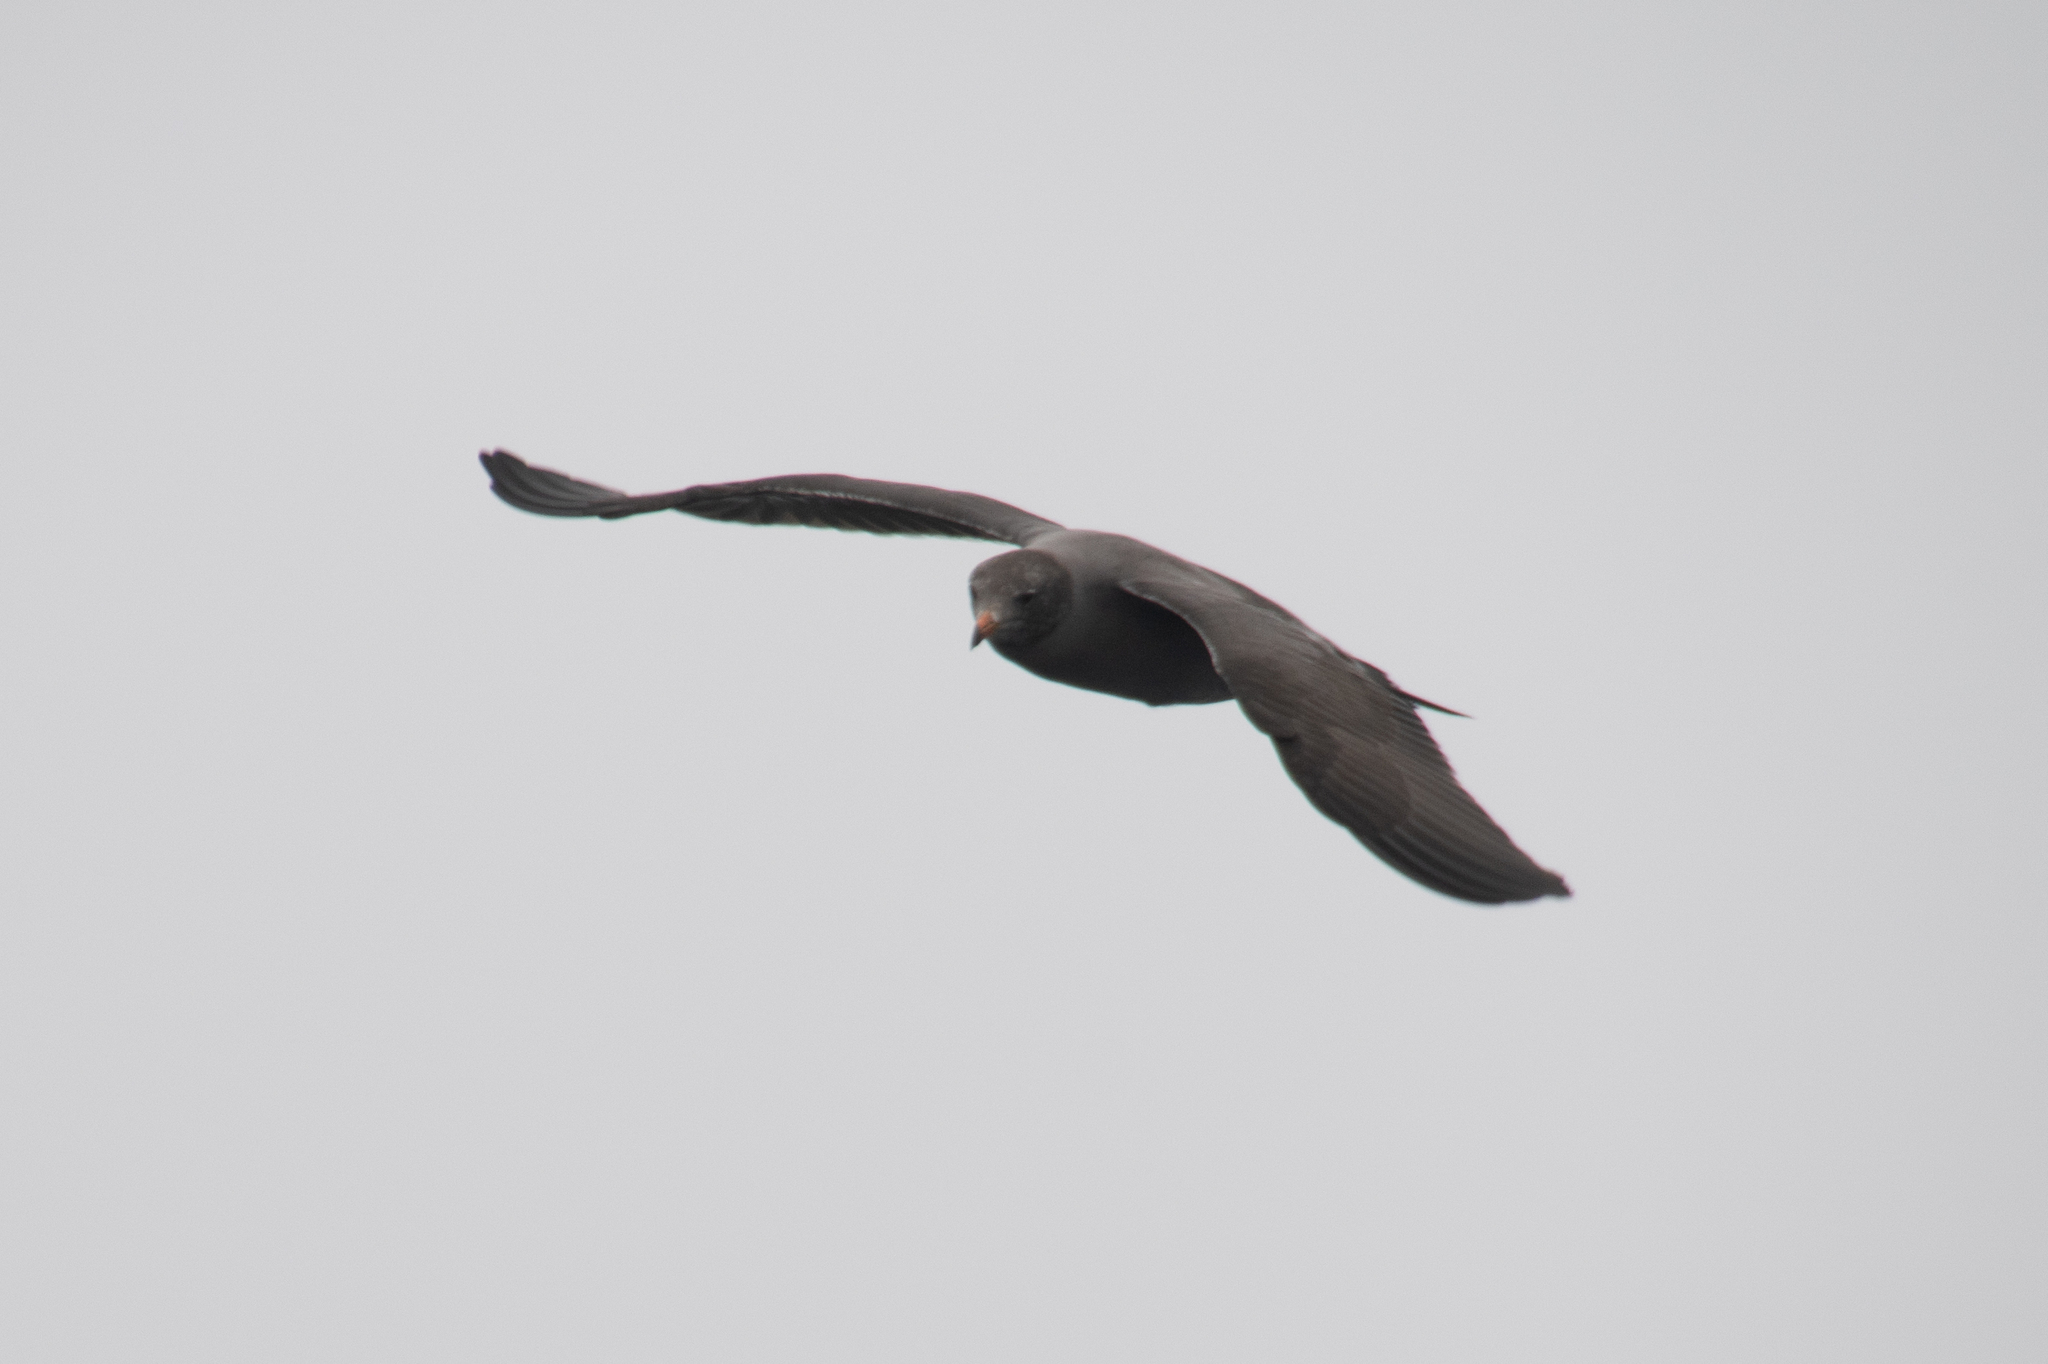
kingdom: Animalia
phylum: Chordata
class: Aves
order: Charadriiformes
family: Laridae
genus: Larus
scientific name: Larus heermanni
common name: Heermann's gull
